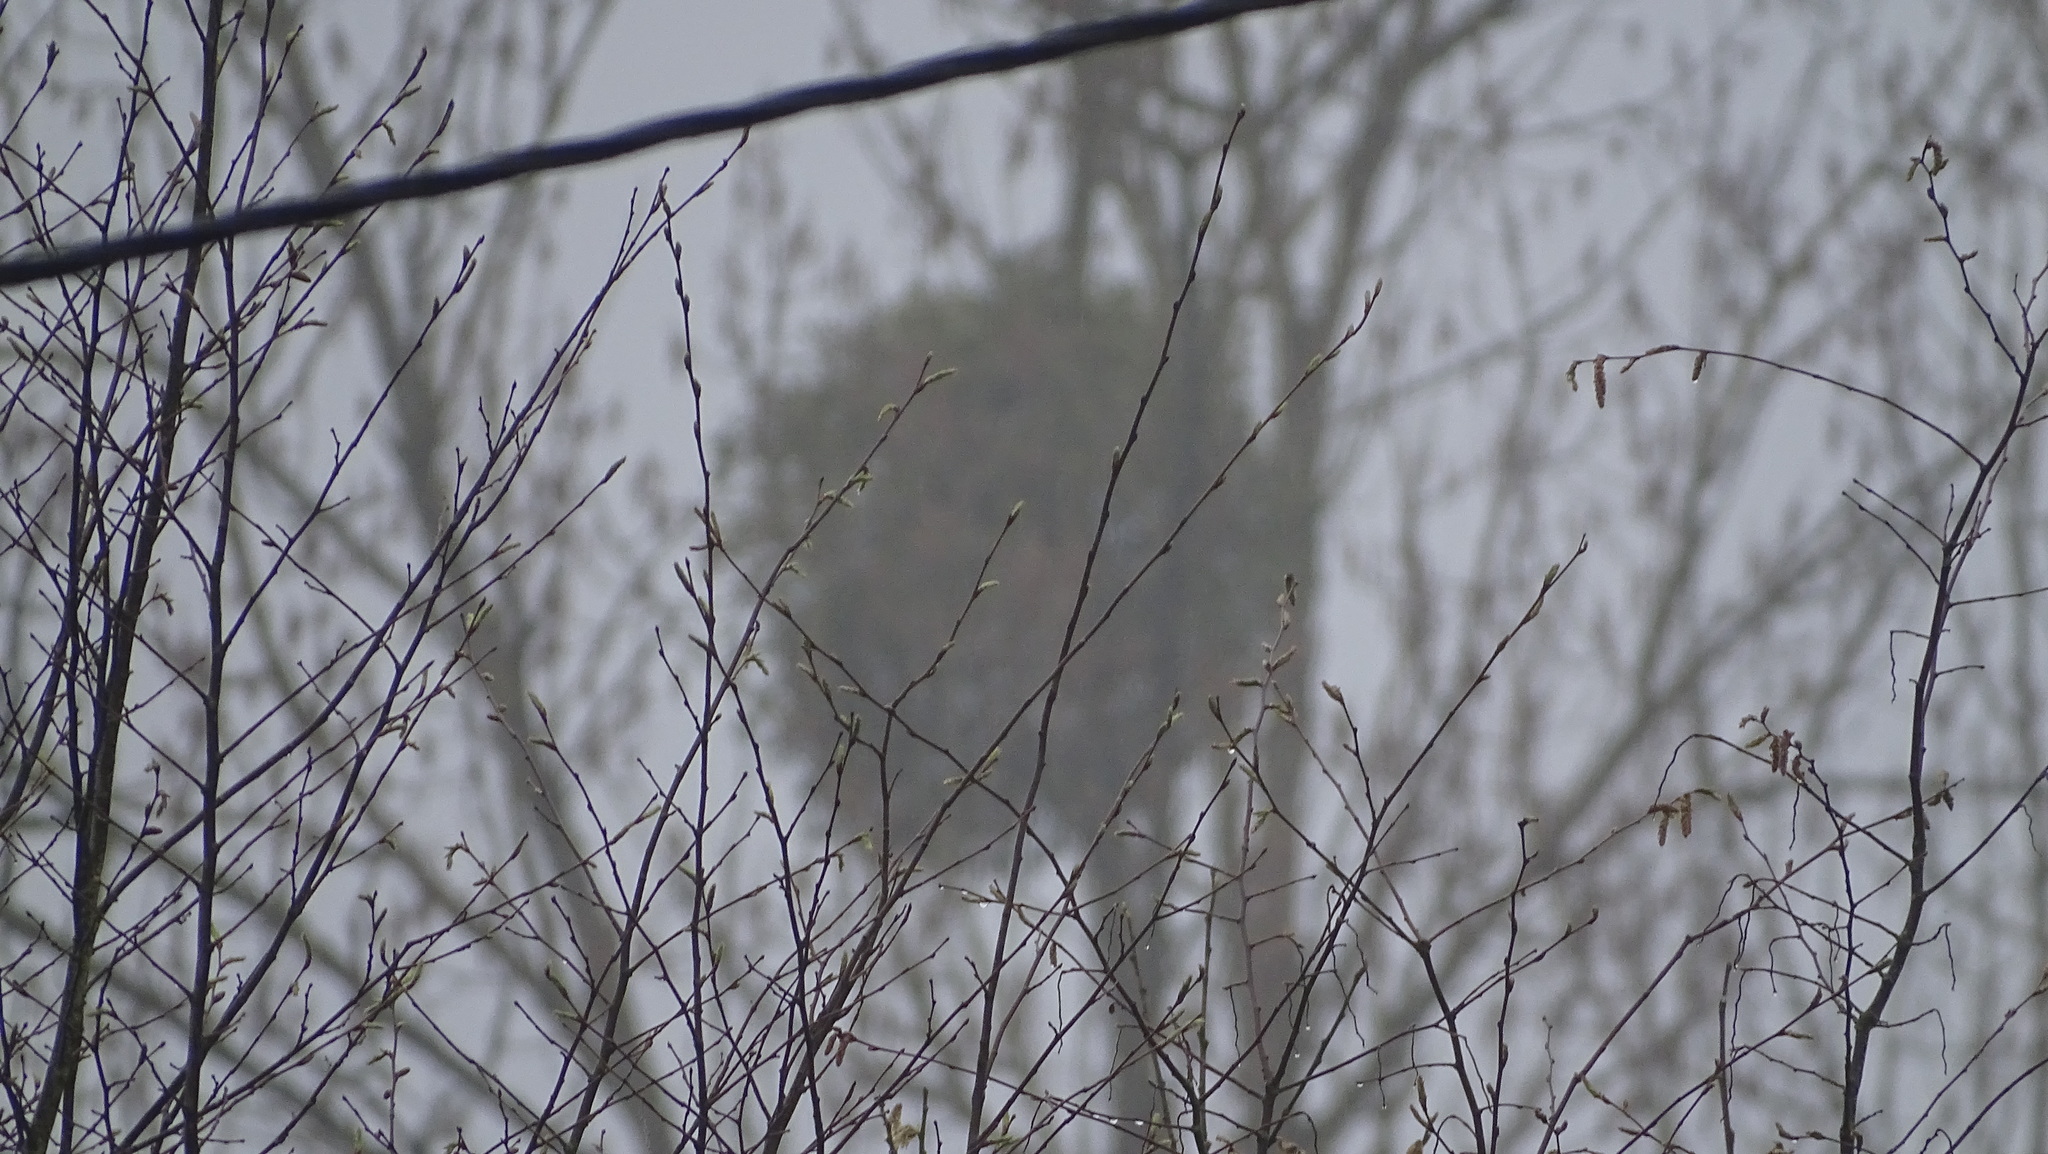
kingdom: Plantae
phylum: Tracheophyta
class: Magnoliopsida
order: Santalales
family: Viscaceae
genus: Viscum
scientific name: Viscum album
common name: Mistletoe
